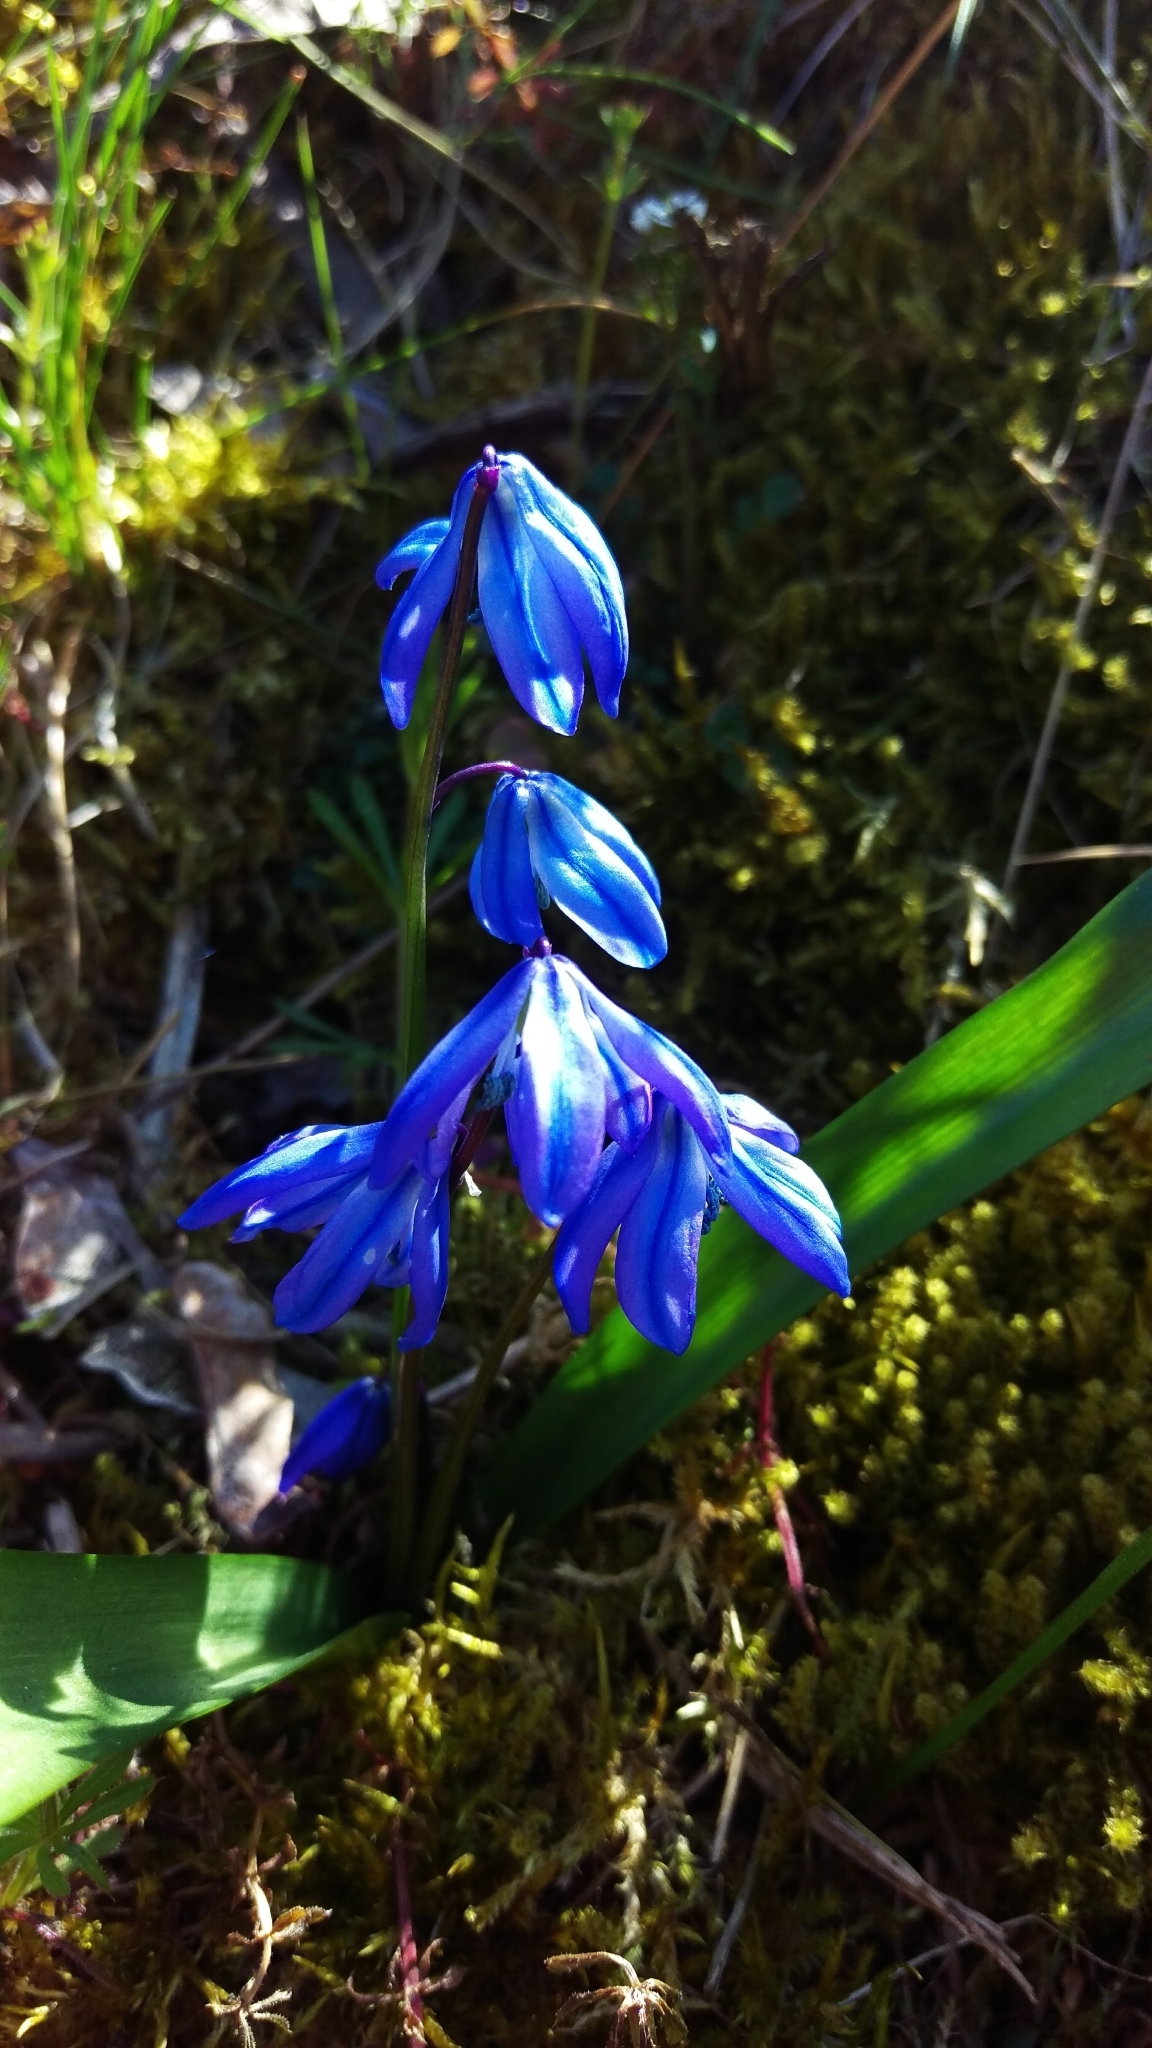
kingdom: Plantae
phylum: Tracheophyta
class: Liliopsida
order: Asparagales
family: Asparagaceae
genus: Scilla
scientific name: Scilla siberica
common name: Siberian squill
